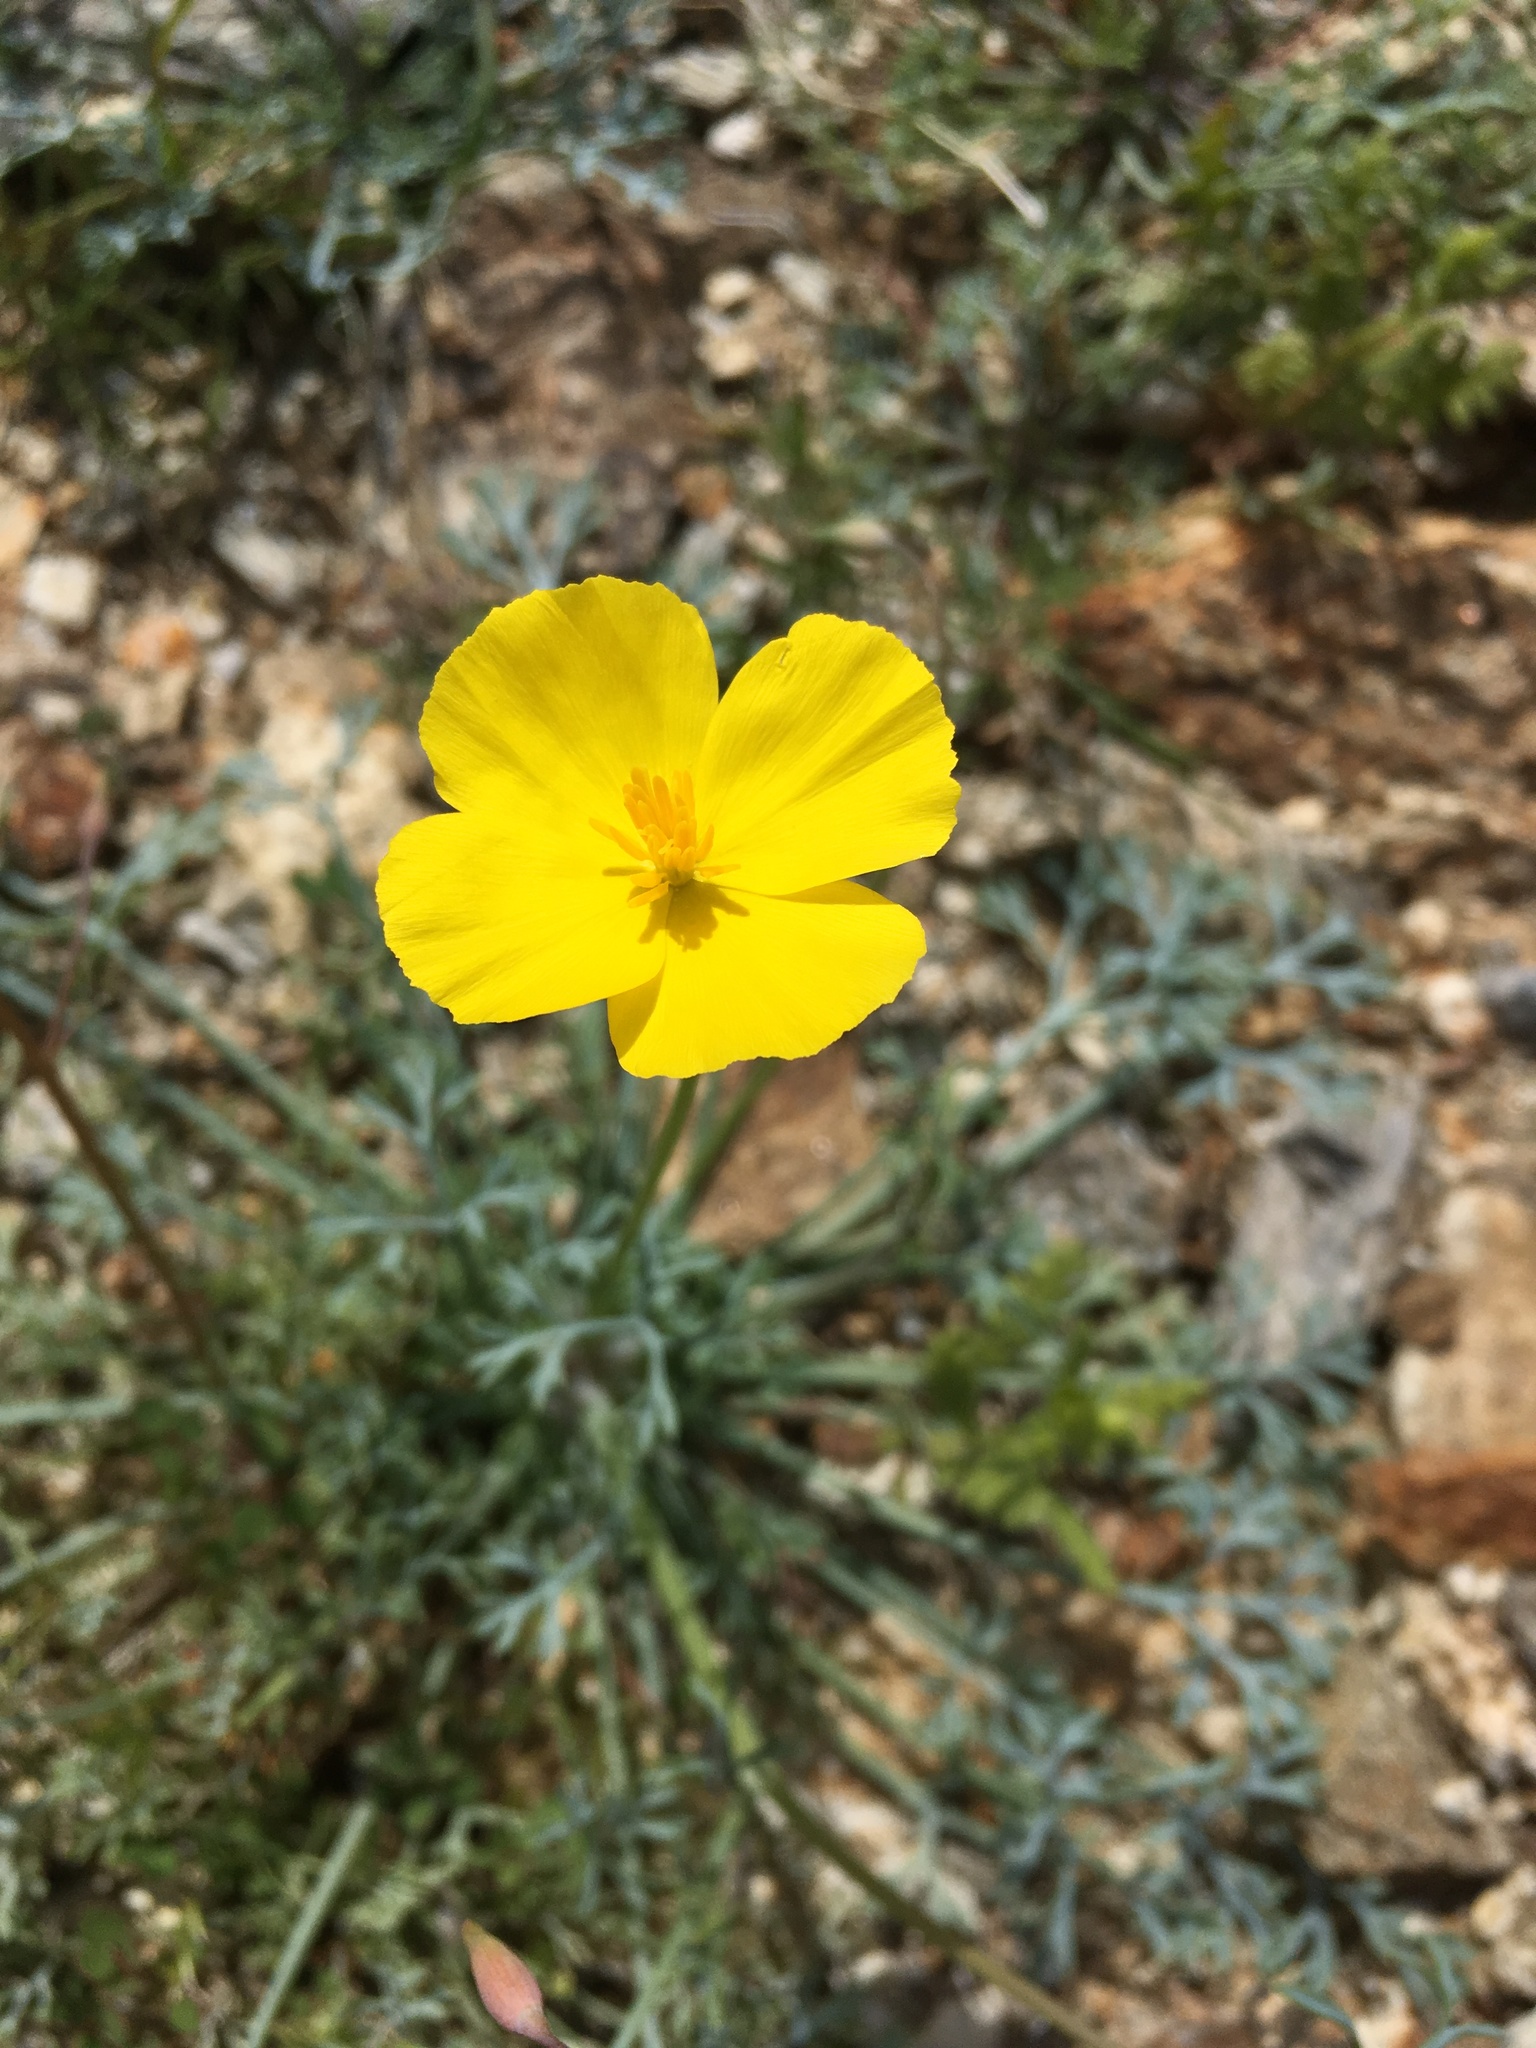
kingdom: Plantae
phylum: Tracheophyta
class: Magnoliopsida
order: Ranunculales
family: Papaveraceae
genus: Eschscholzia
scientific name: Eschscholzia parishii
